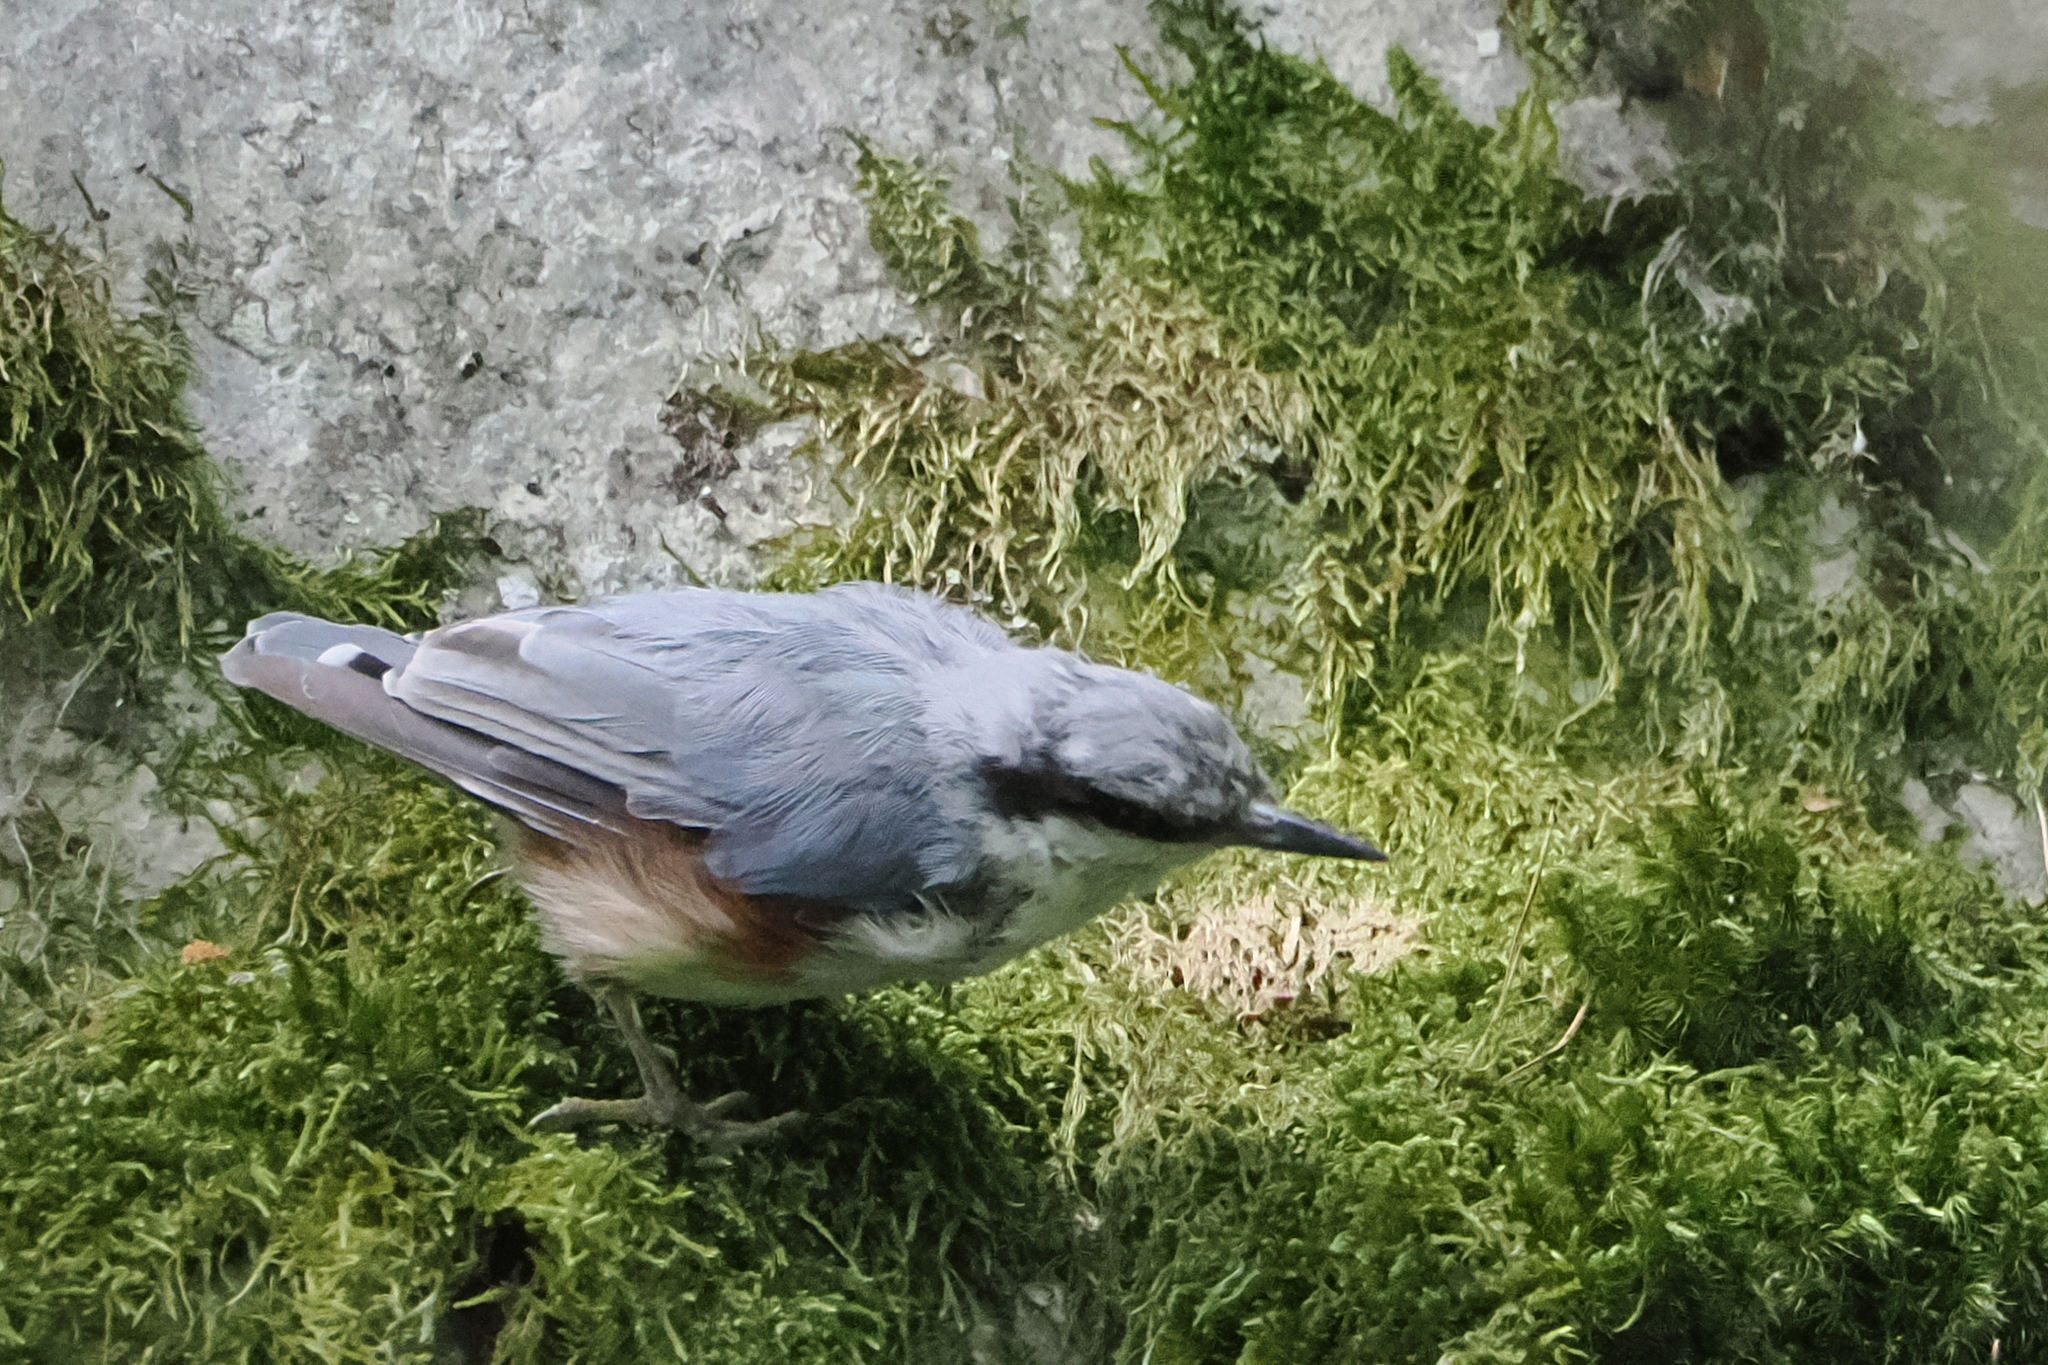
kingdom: Animalia
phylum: Chordata
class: Aves
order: Passeriformes
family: Sittidae
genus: Sitta
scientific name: Sitta europaea
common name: Eurasian nuthatch
